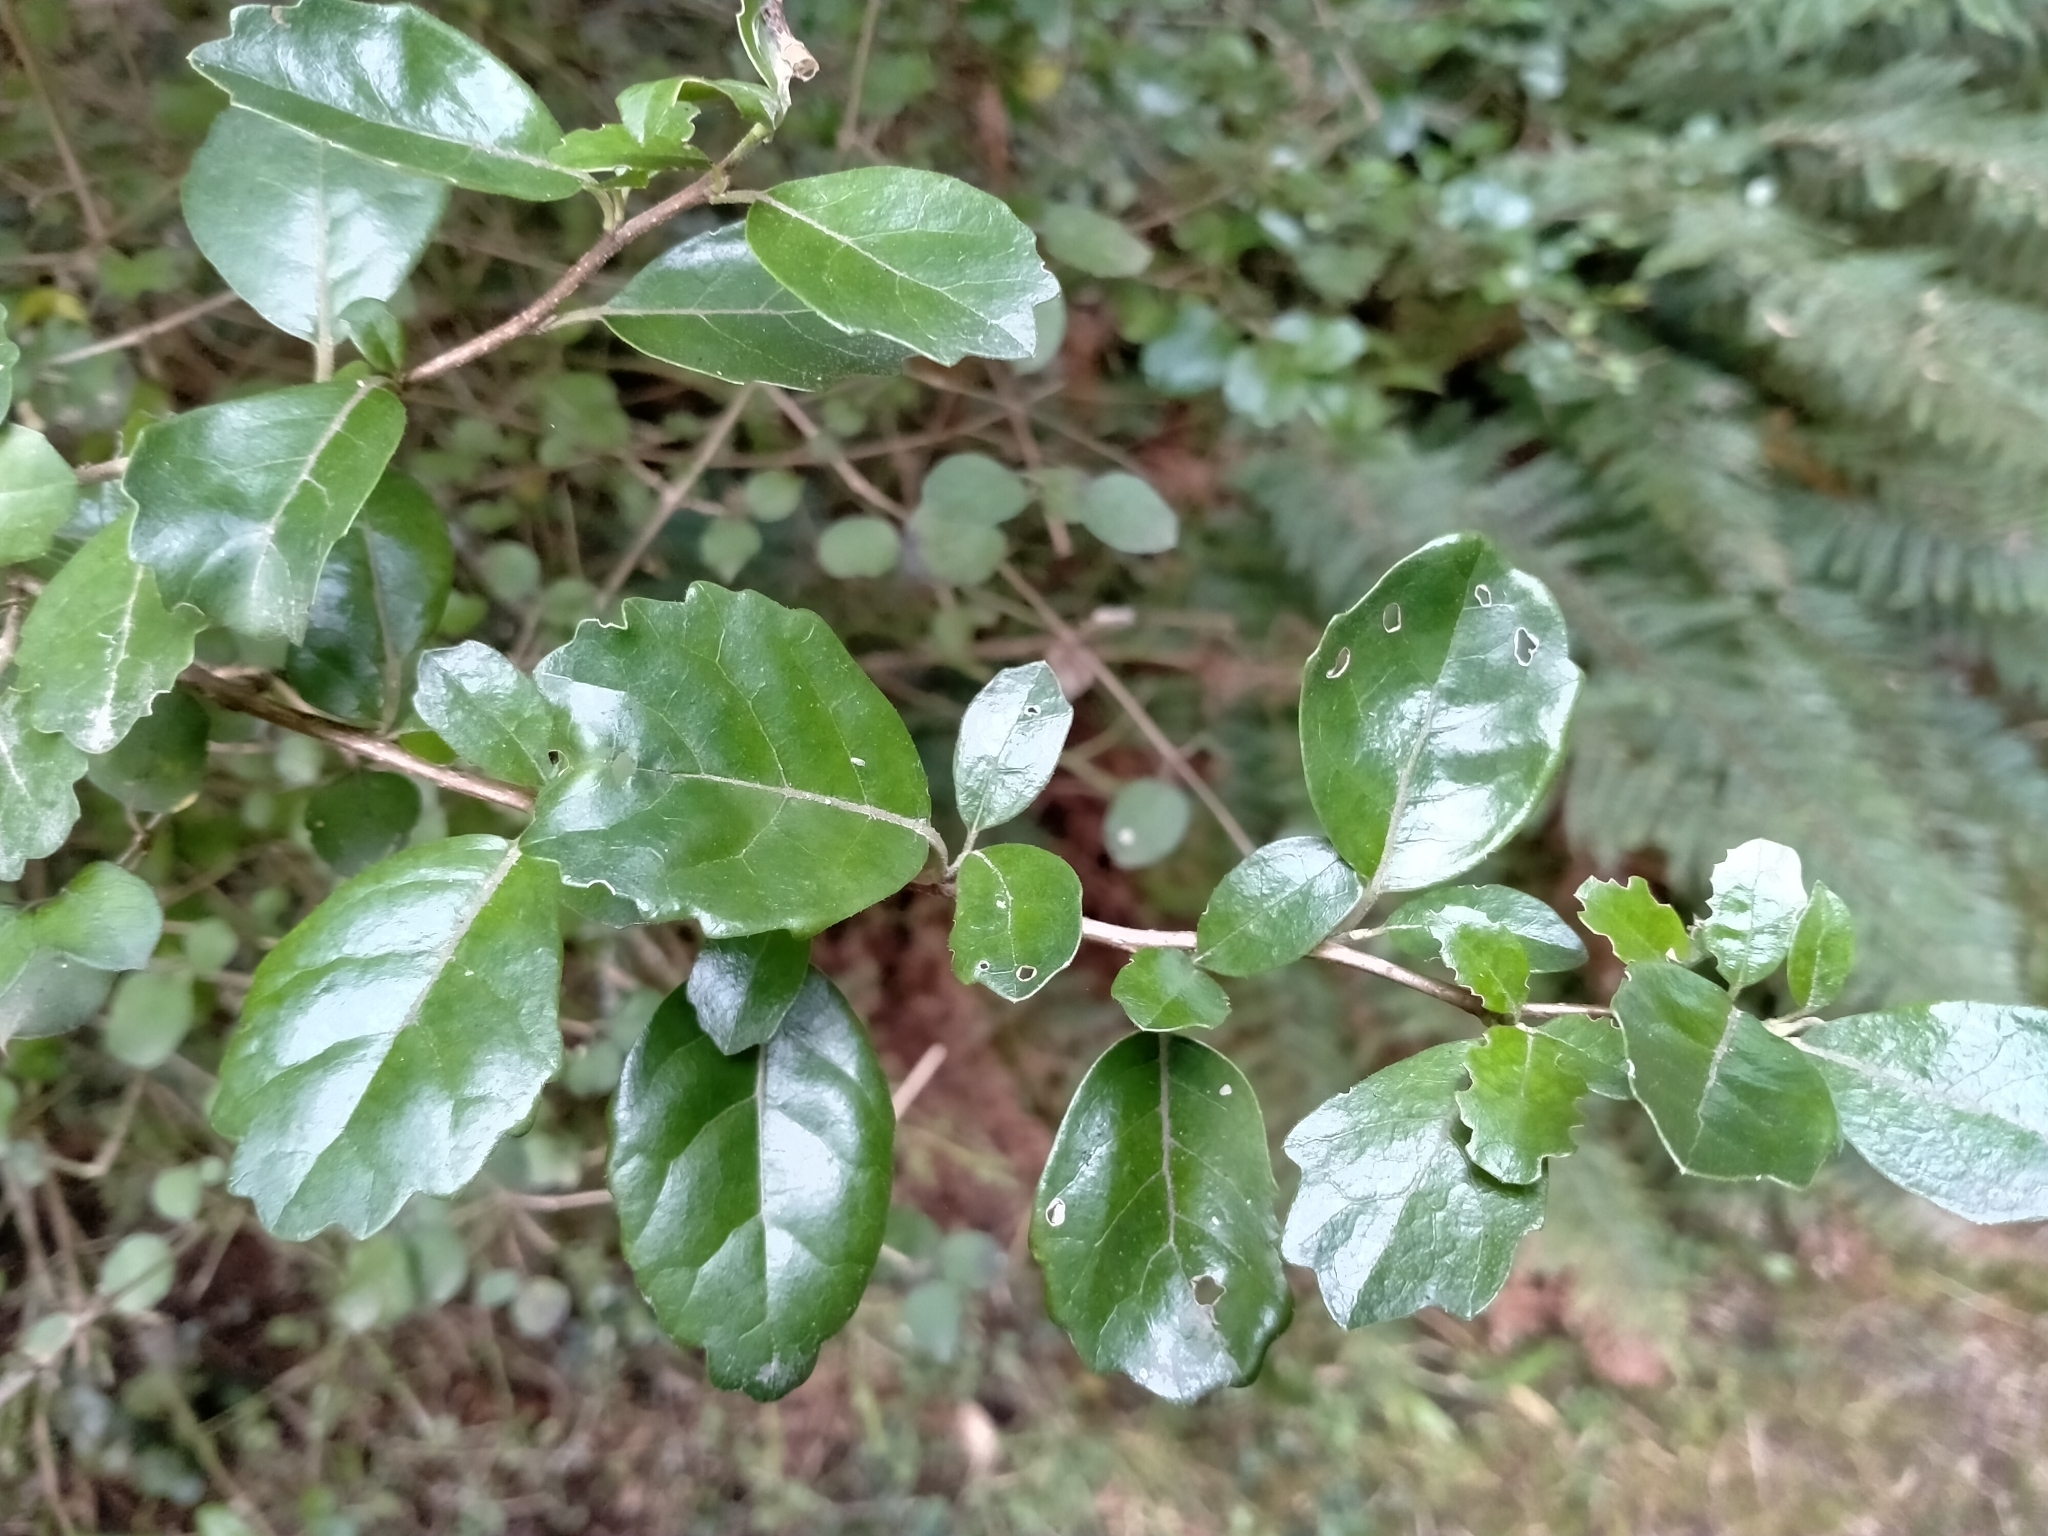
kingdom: Plantae
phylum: Tracheophyta
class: Magnoliopsida
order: Apiales
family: Pennantiaceae
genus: Pennantia
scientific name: Pennantia corymbosa
